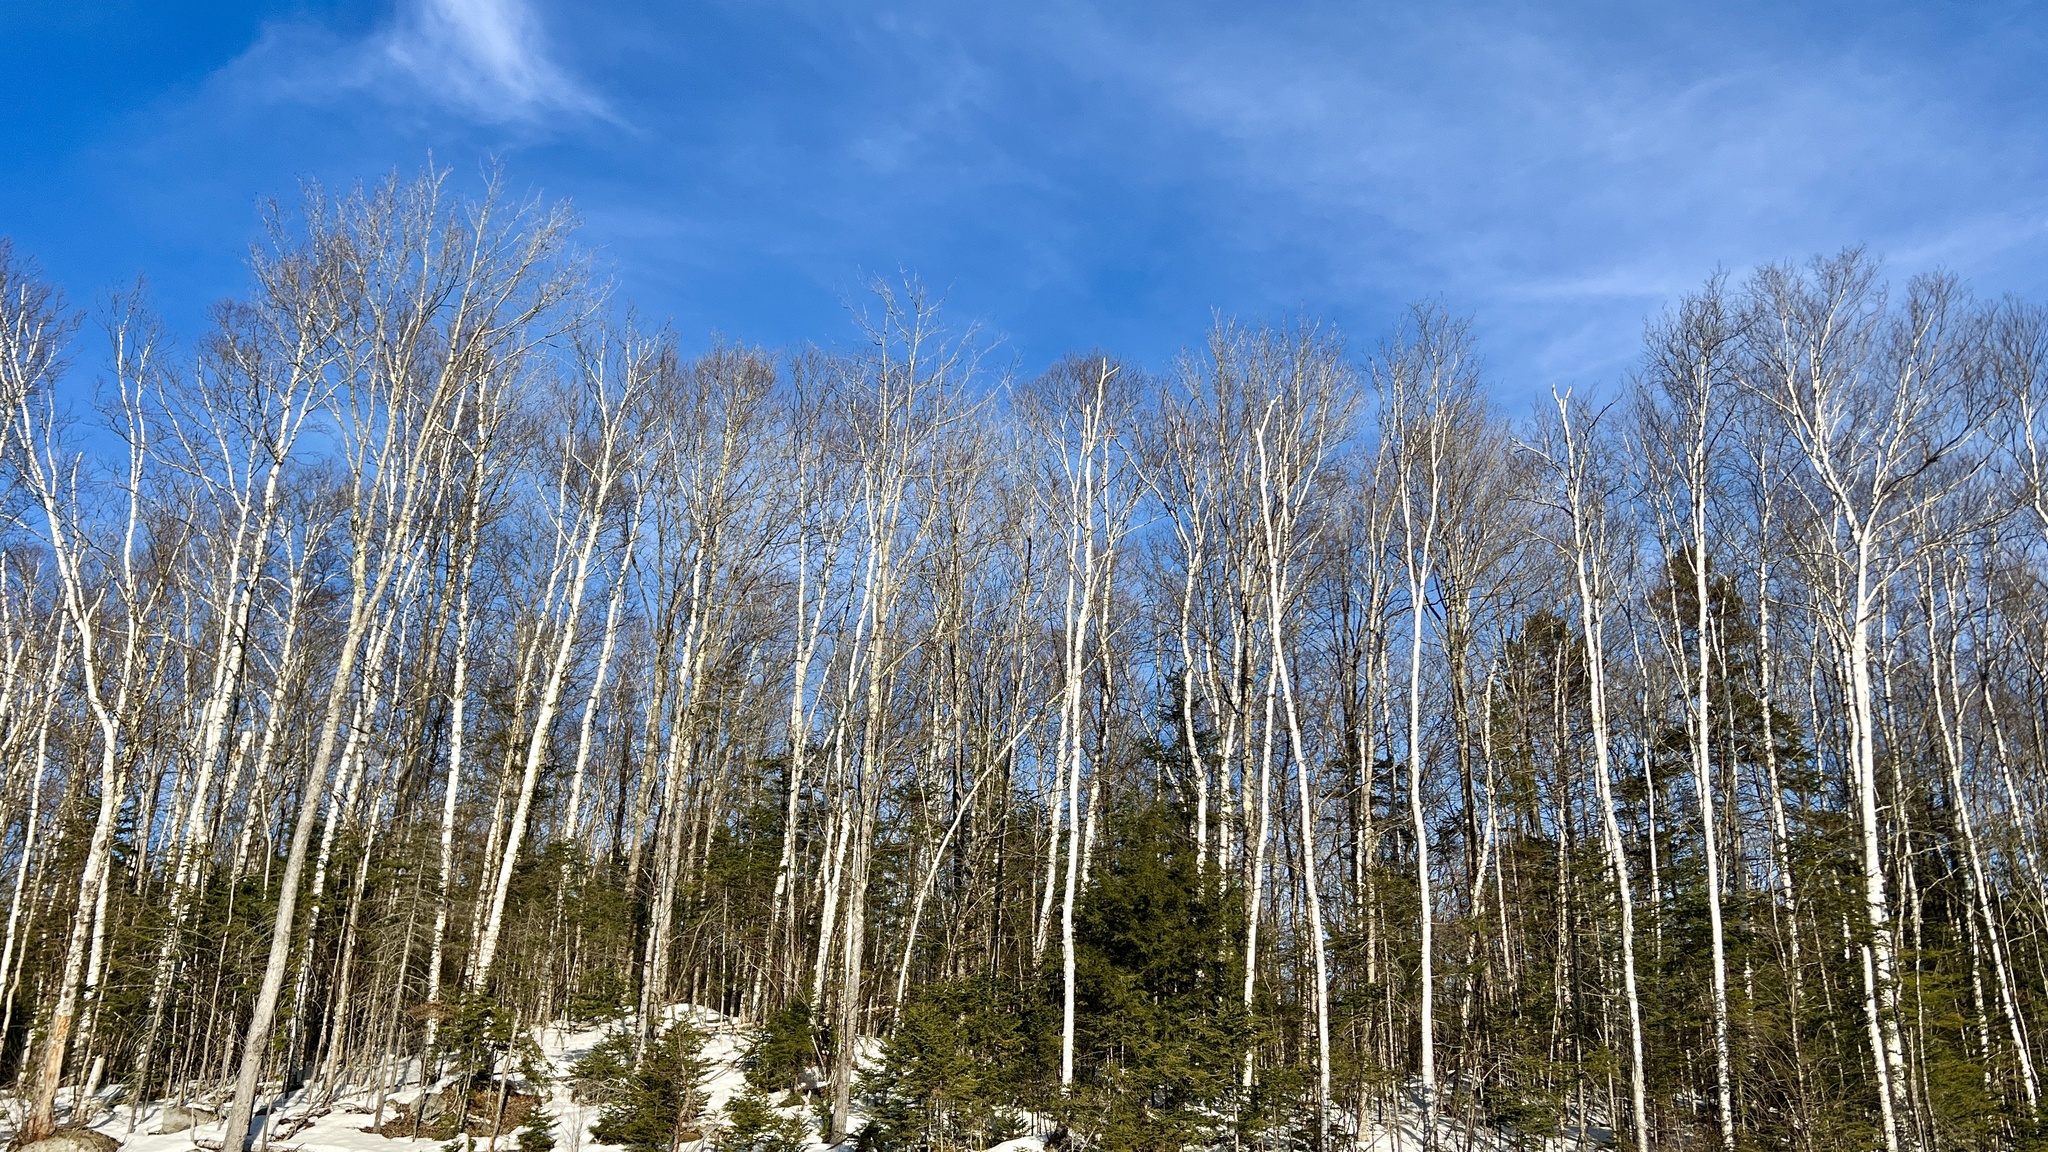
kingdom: Plantae
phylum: Tracheophyta
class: Magnoliopsida
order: Fagales
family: Betulaceae
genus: Betula
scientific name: Betula papyrifera
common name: Paper birch
